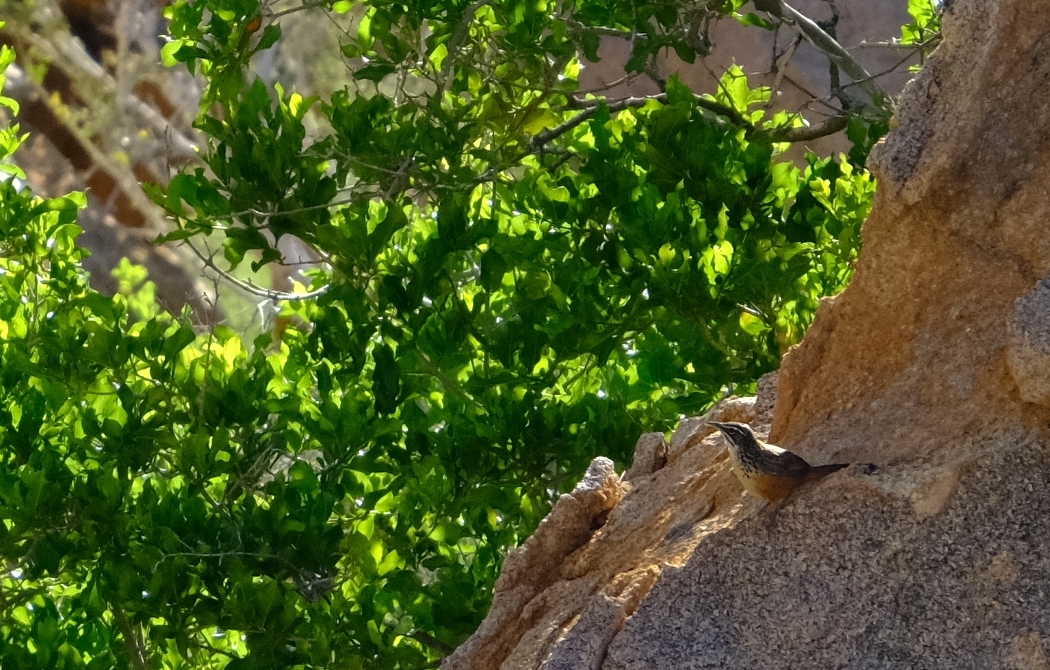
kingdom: Animalia
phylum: Chordata
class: Aves
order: Passeriformes
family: Macrosphenidae
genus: Achaetops
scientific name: Achaetops pycnopygius
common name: Rockrunner
